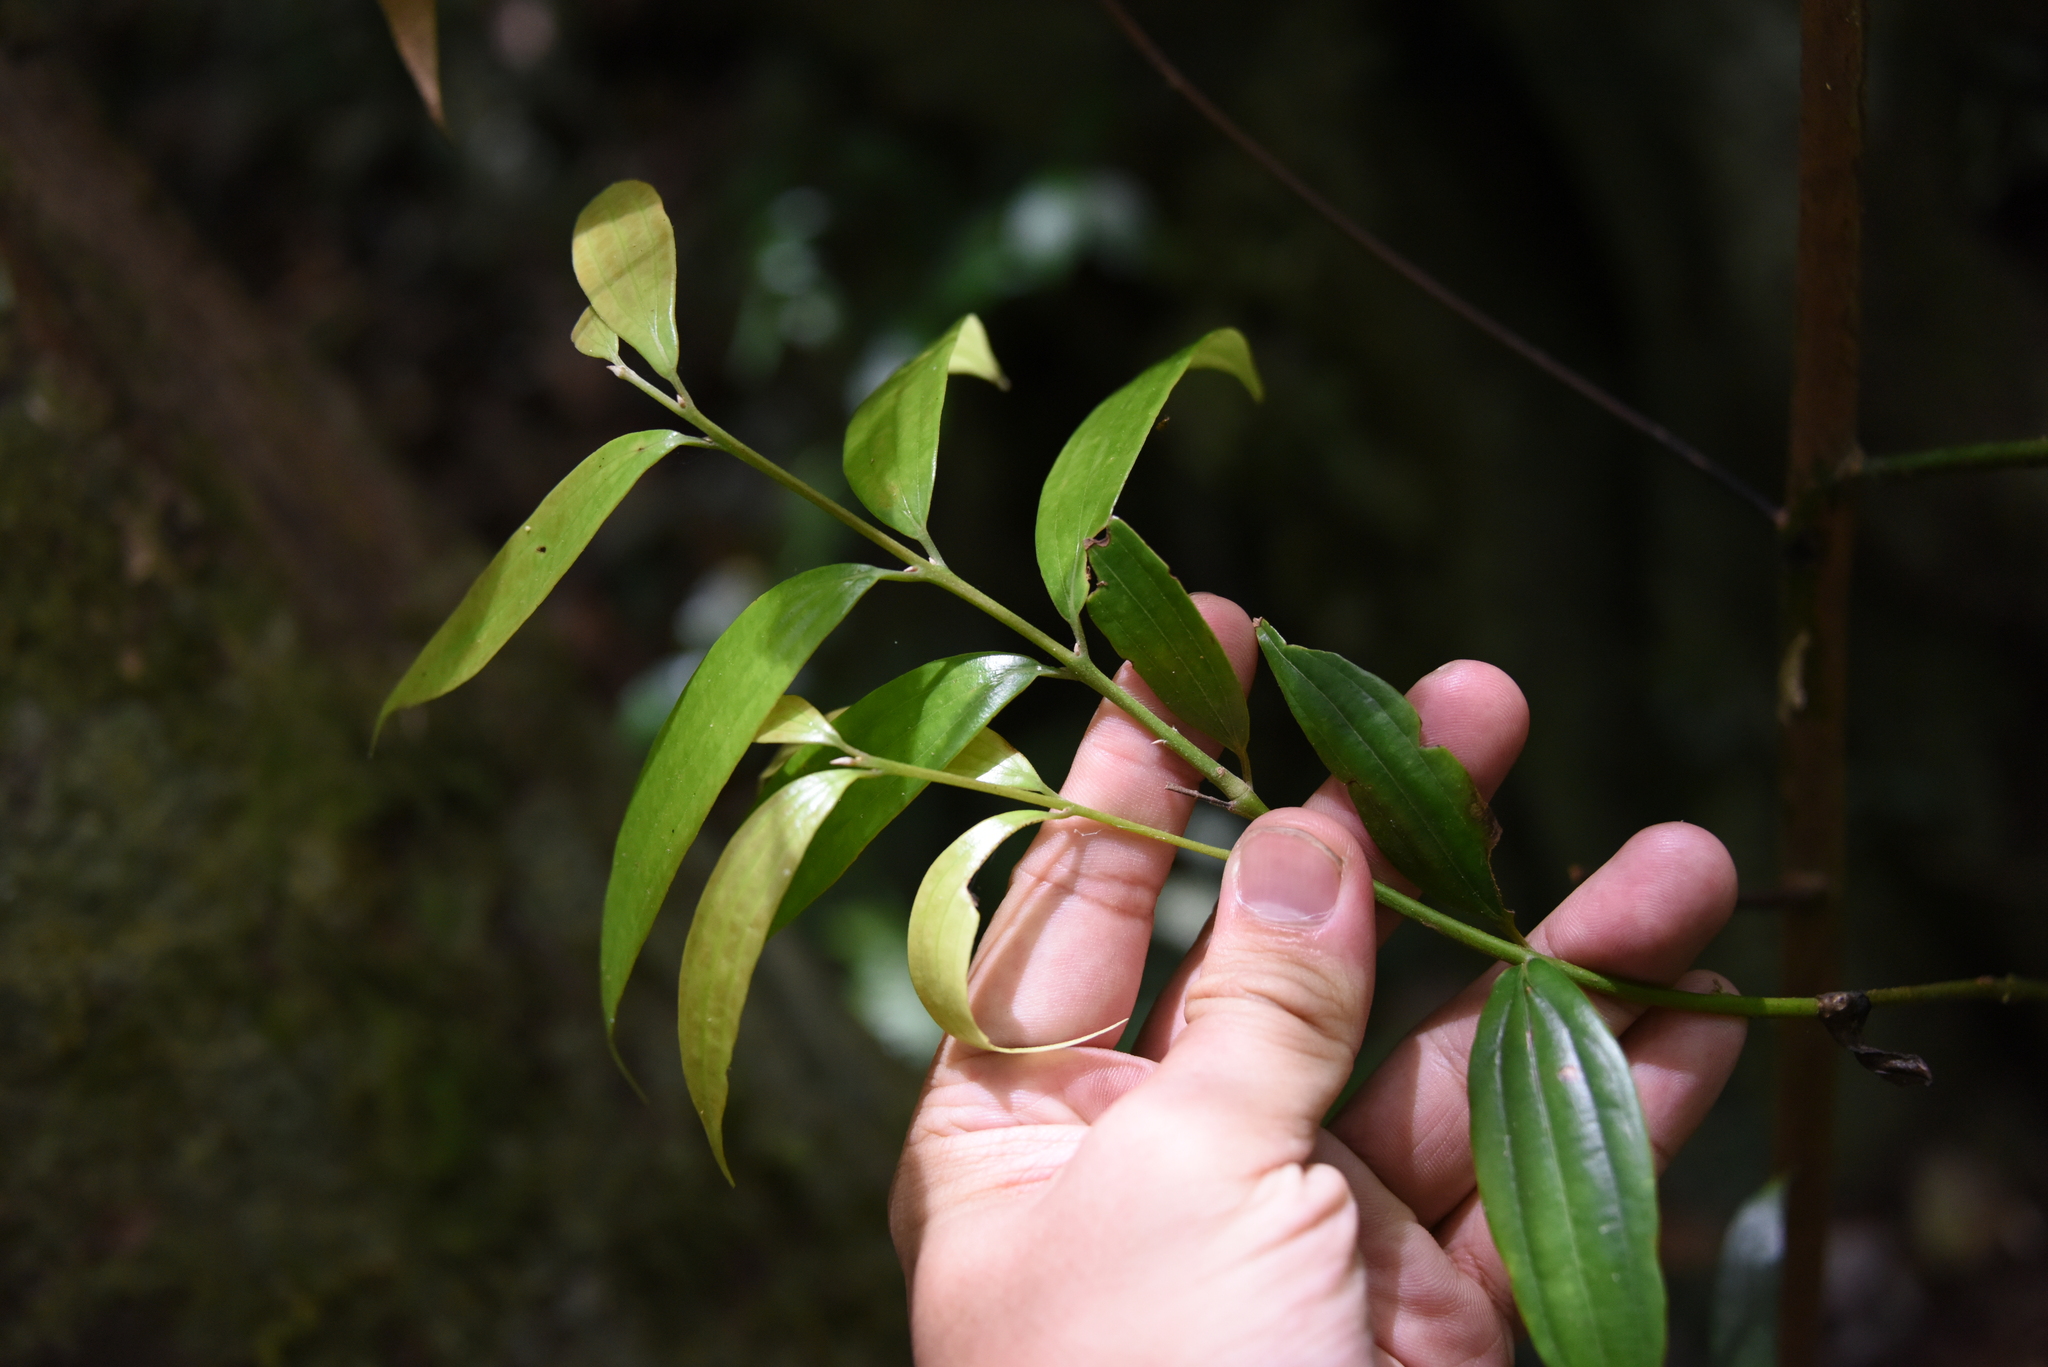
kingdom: Plantae
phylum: Tracheophyta
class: Magnoliopsida
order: Laurales
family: Lauraceae
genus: Cinnamomum
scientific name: Cinnamomum subavenium
